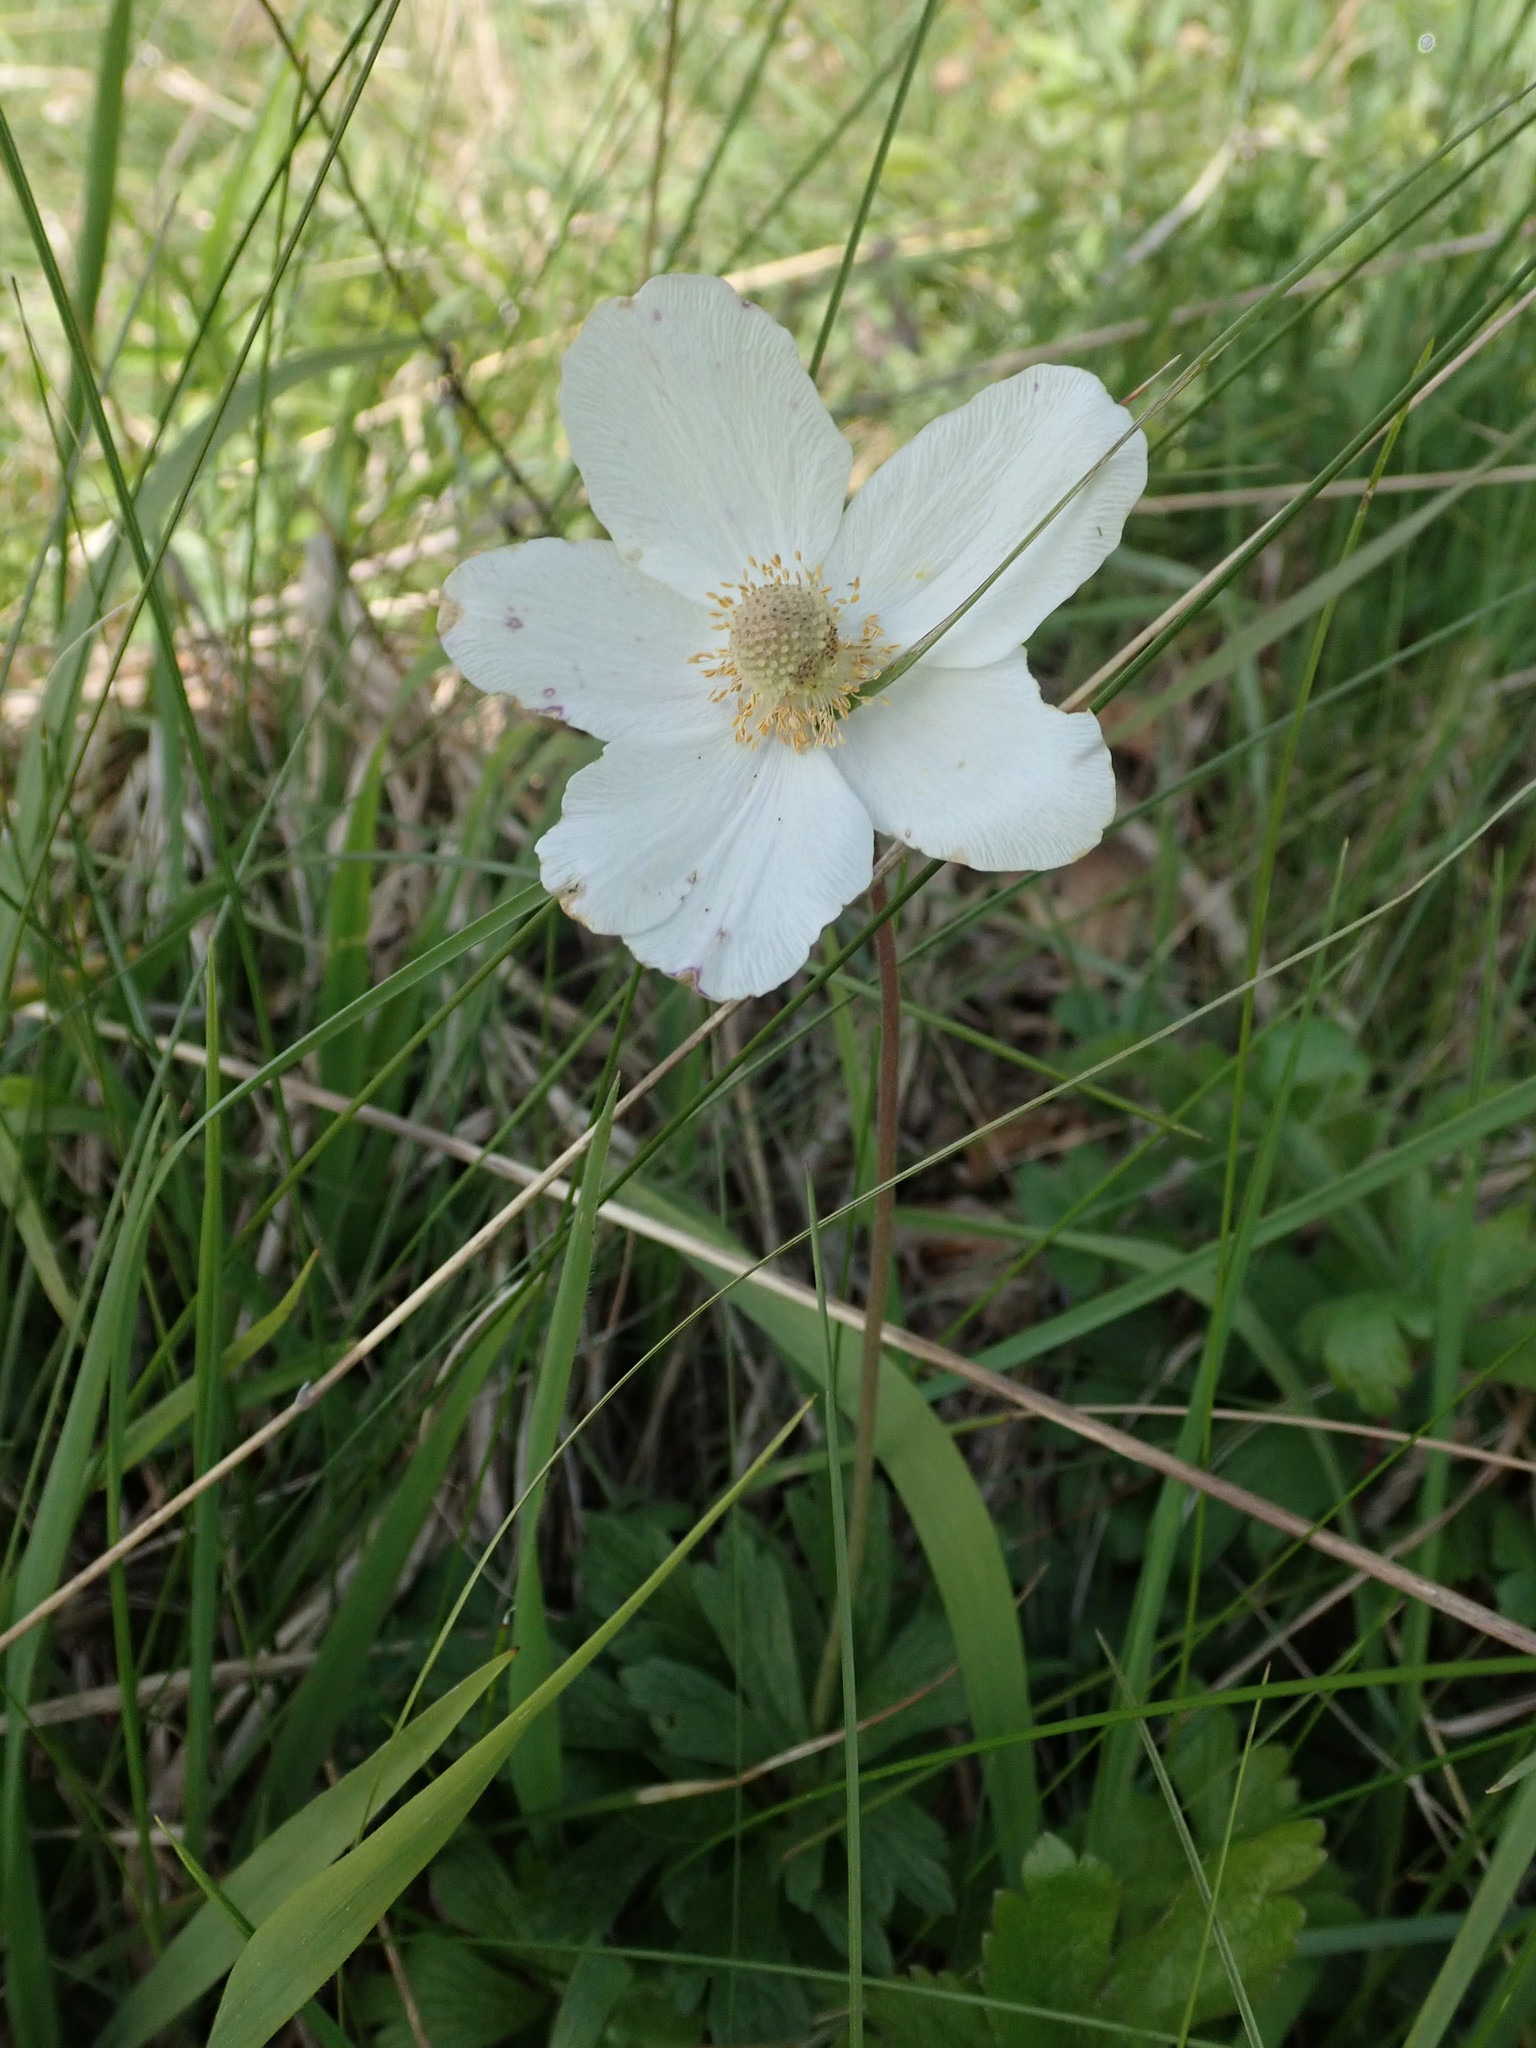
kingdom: Plantae
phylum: Tracheophyta
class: Magnoliopsida
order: Ranunculales
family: Ranunculaceae
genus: Anemone
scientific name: Anemone sylvestris
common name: Snowdrop anemone
